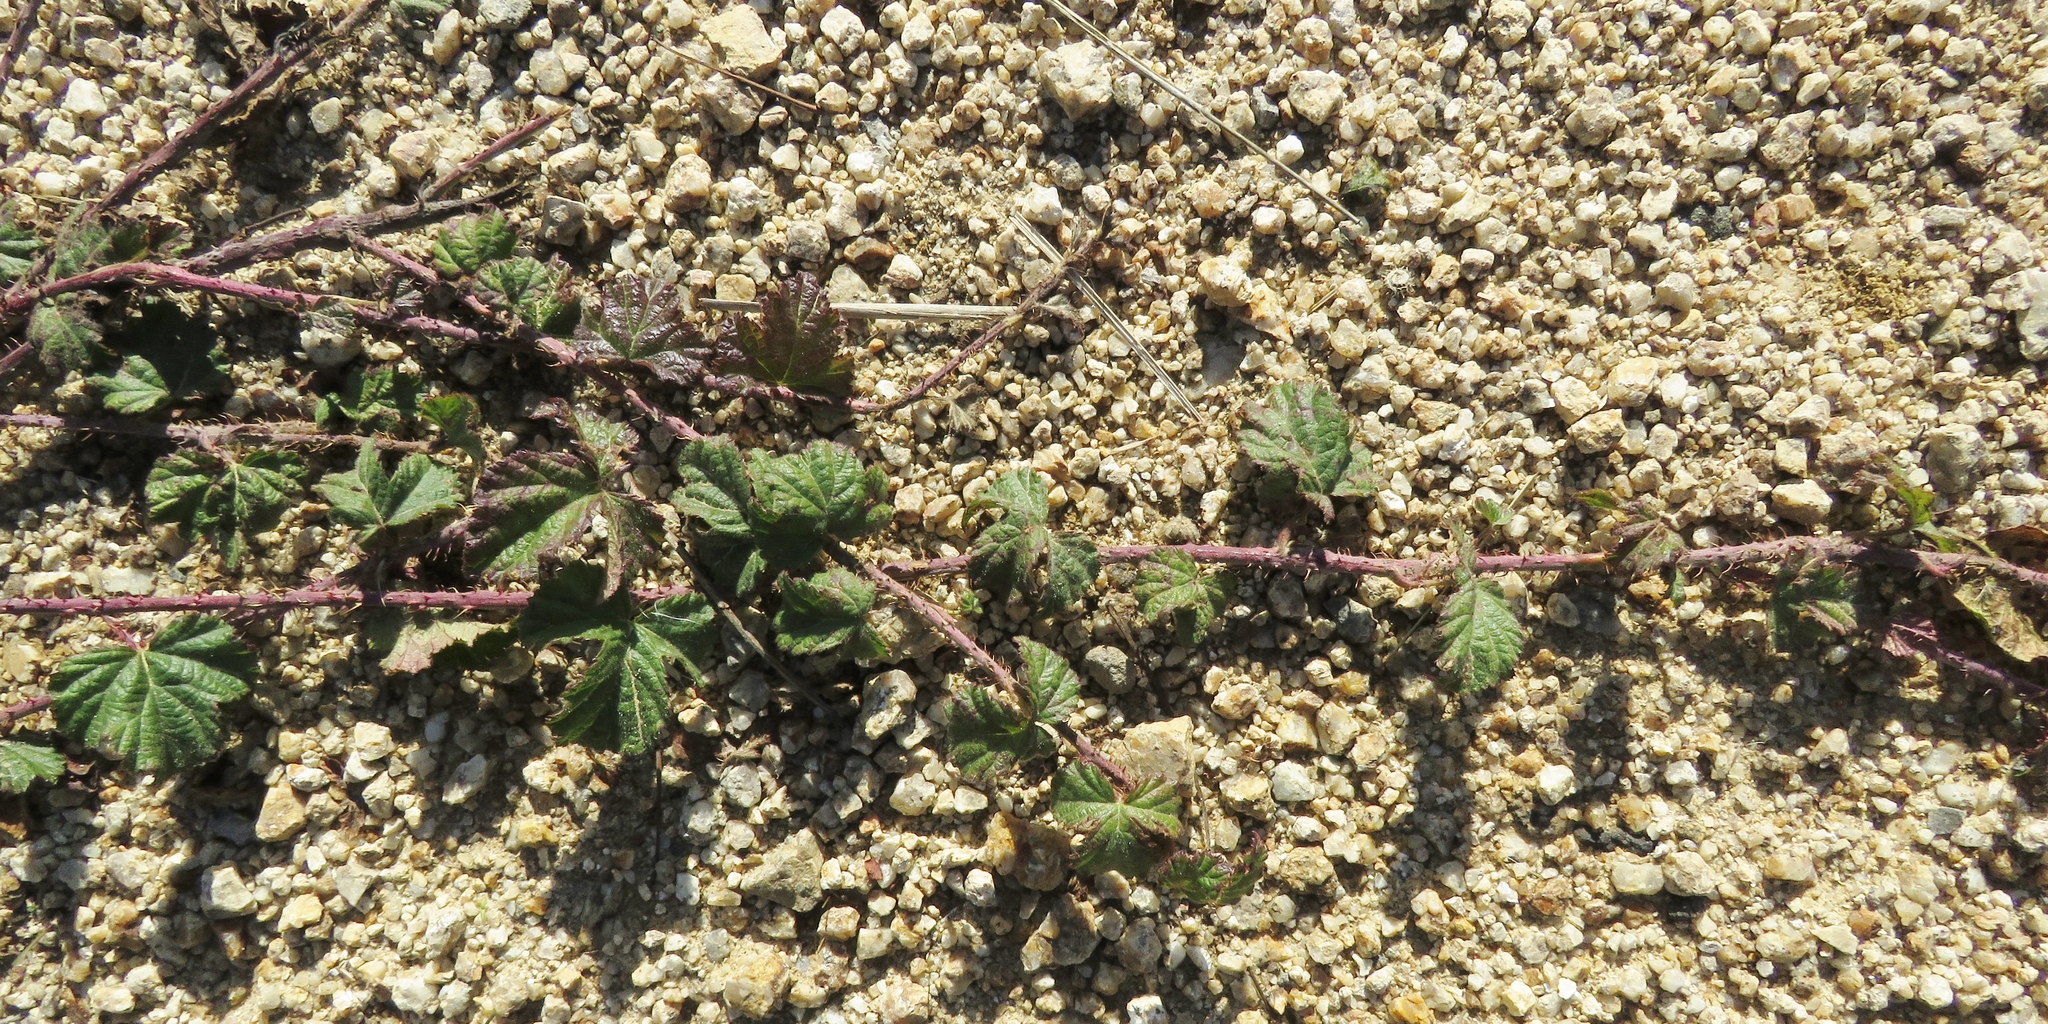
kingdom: Plantae
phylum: Tracheophyta
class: Magnoliopsida
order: Rosales
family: Rosaceae
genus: Rubus
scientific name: Rubus ursinus
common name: Pacific blackberry
